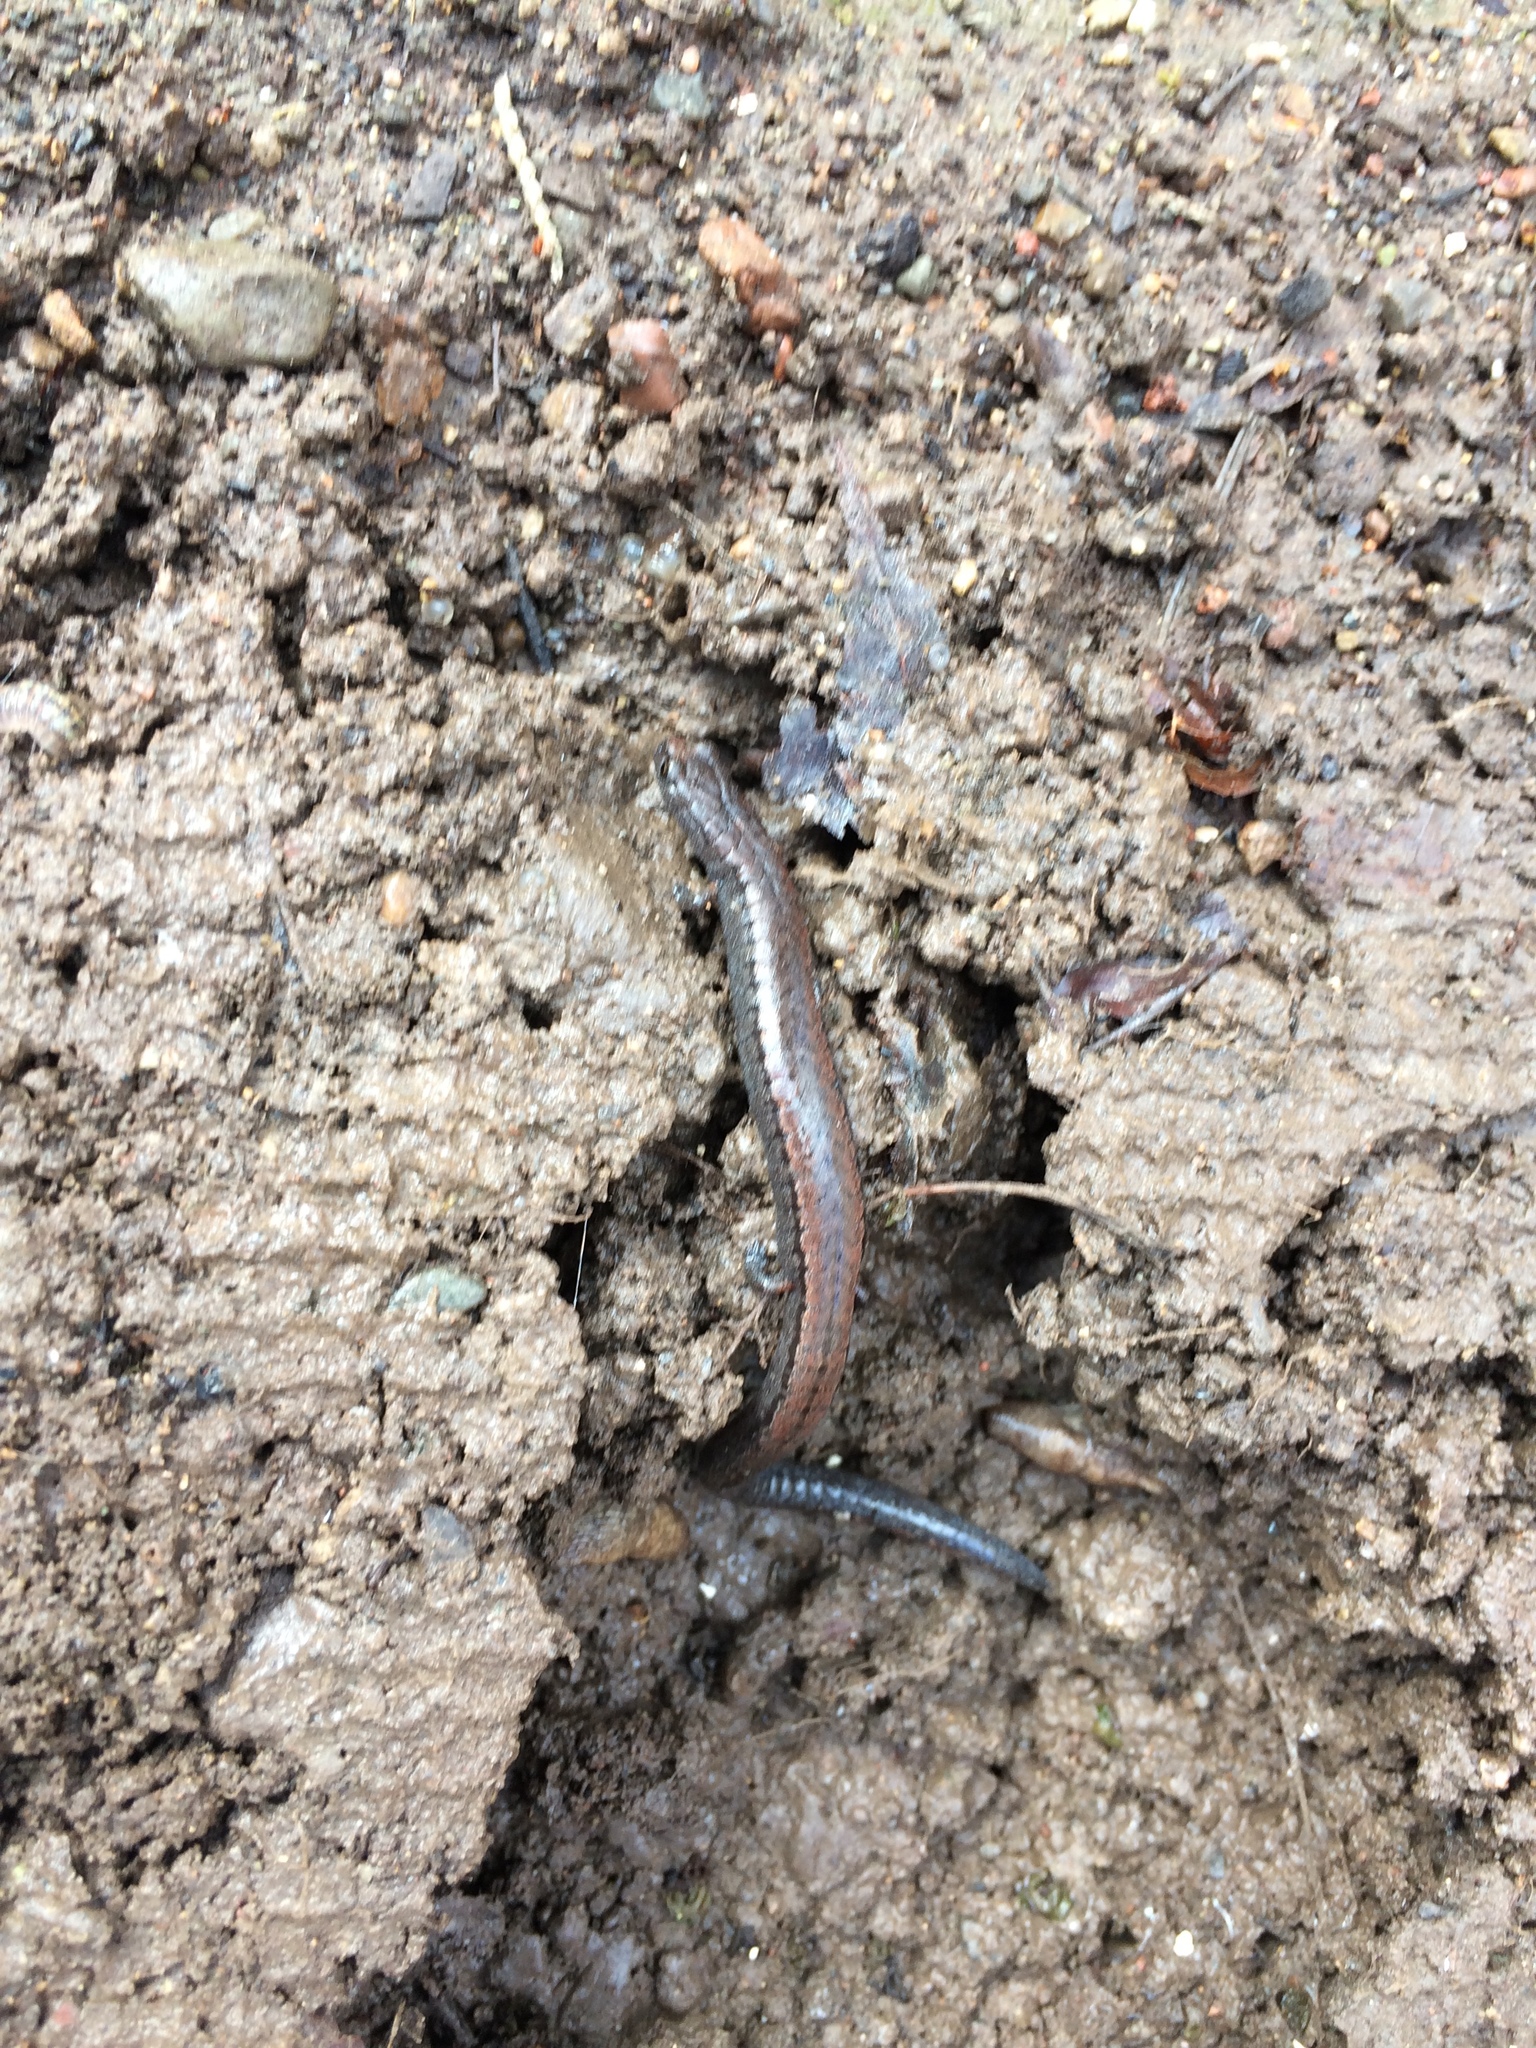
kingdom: Animalia
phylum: Chordata
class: Amphibia
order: Caudata
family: Plethodontidae
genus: Batrachoseps
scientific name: Batrachoseps attenuatus
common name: California slender salamander
